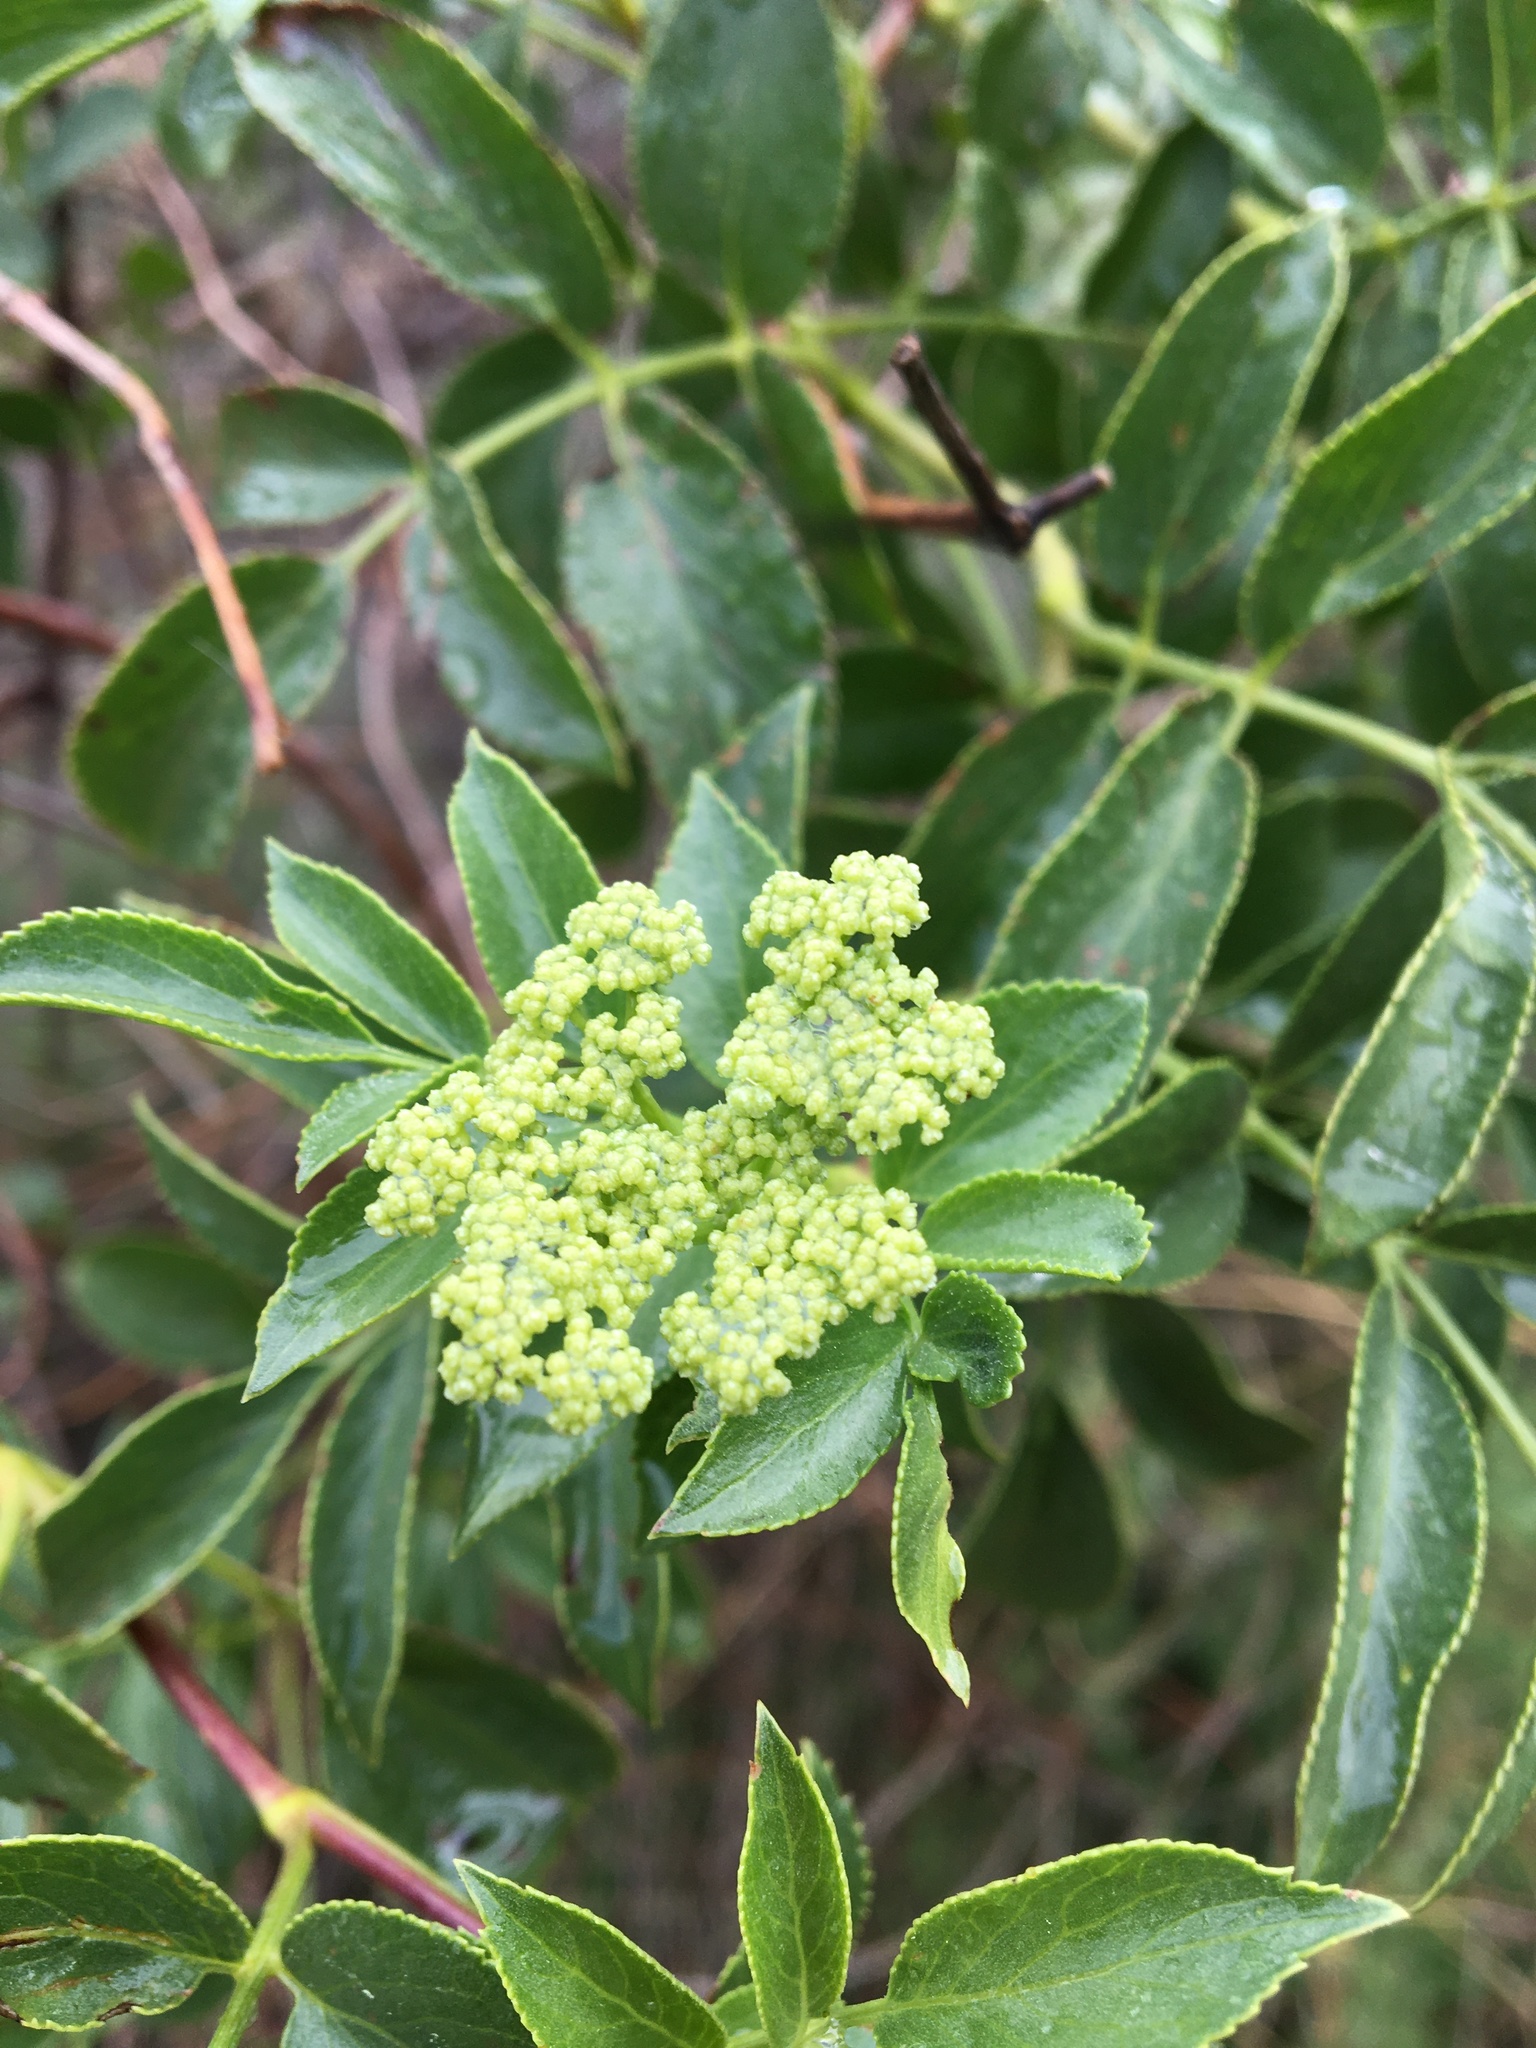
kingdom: Plantae
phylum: Tracheophyta
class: Magnoliopsida
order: Dipsacales
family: Viburnaceae
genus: Sambucus
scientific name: Sambucus cerulea
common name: Blue elder
